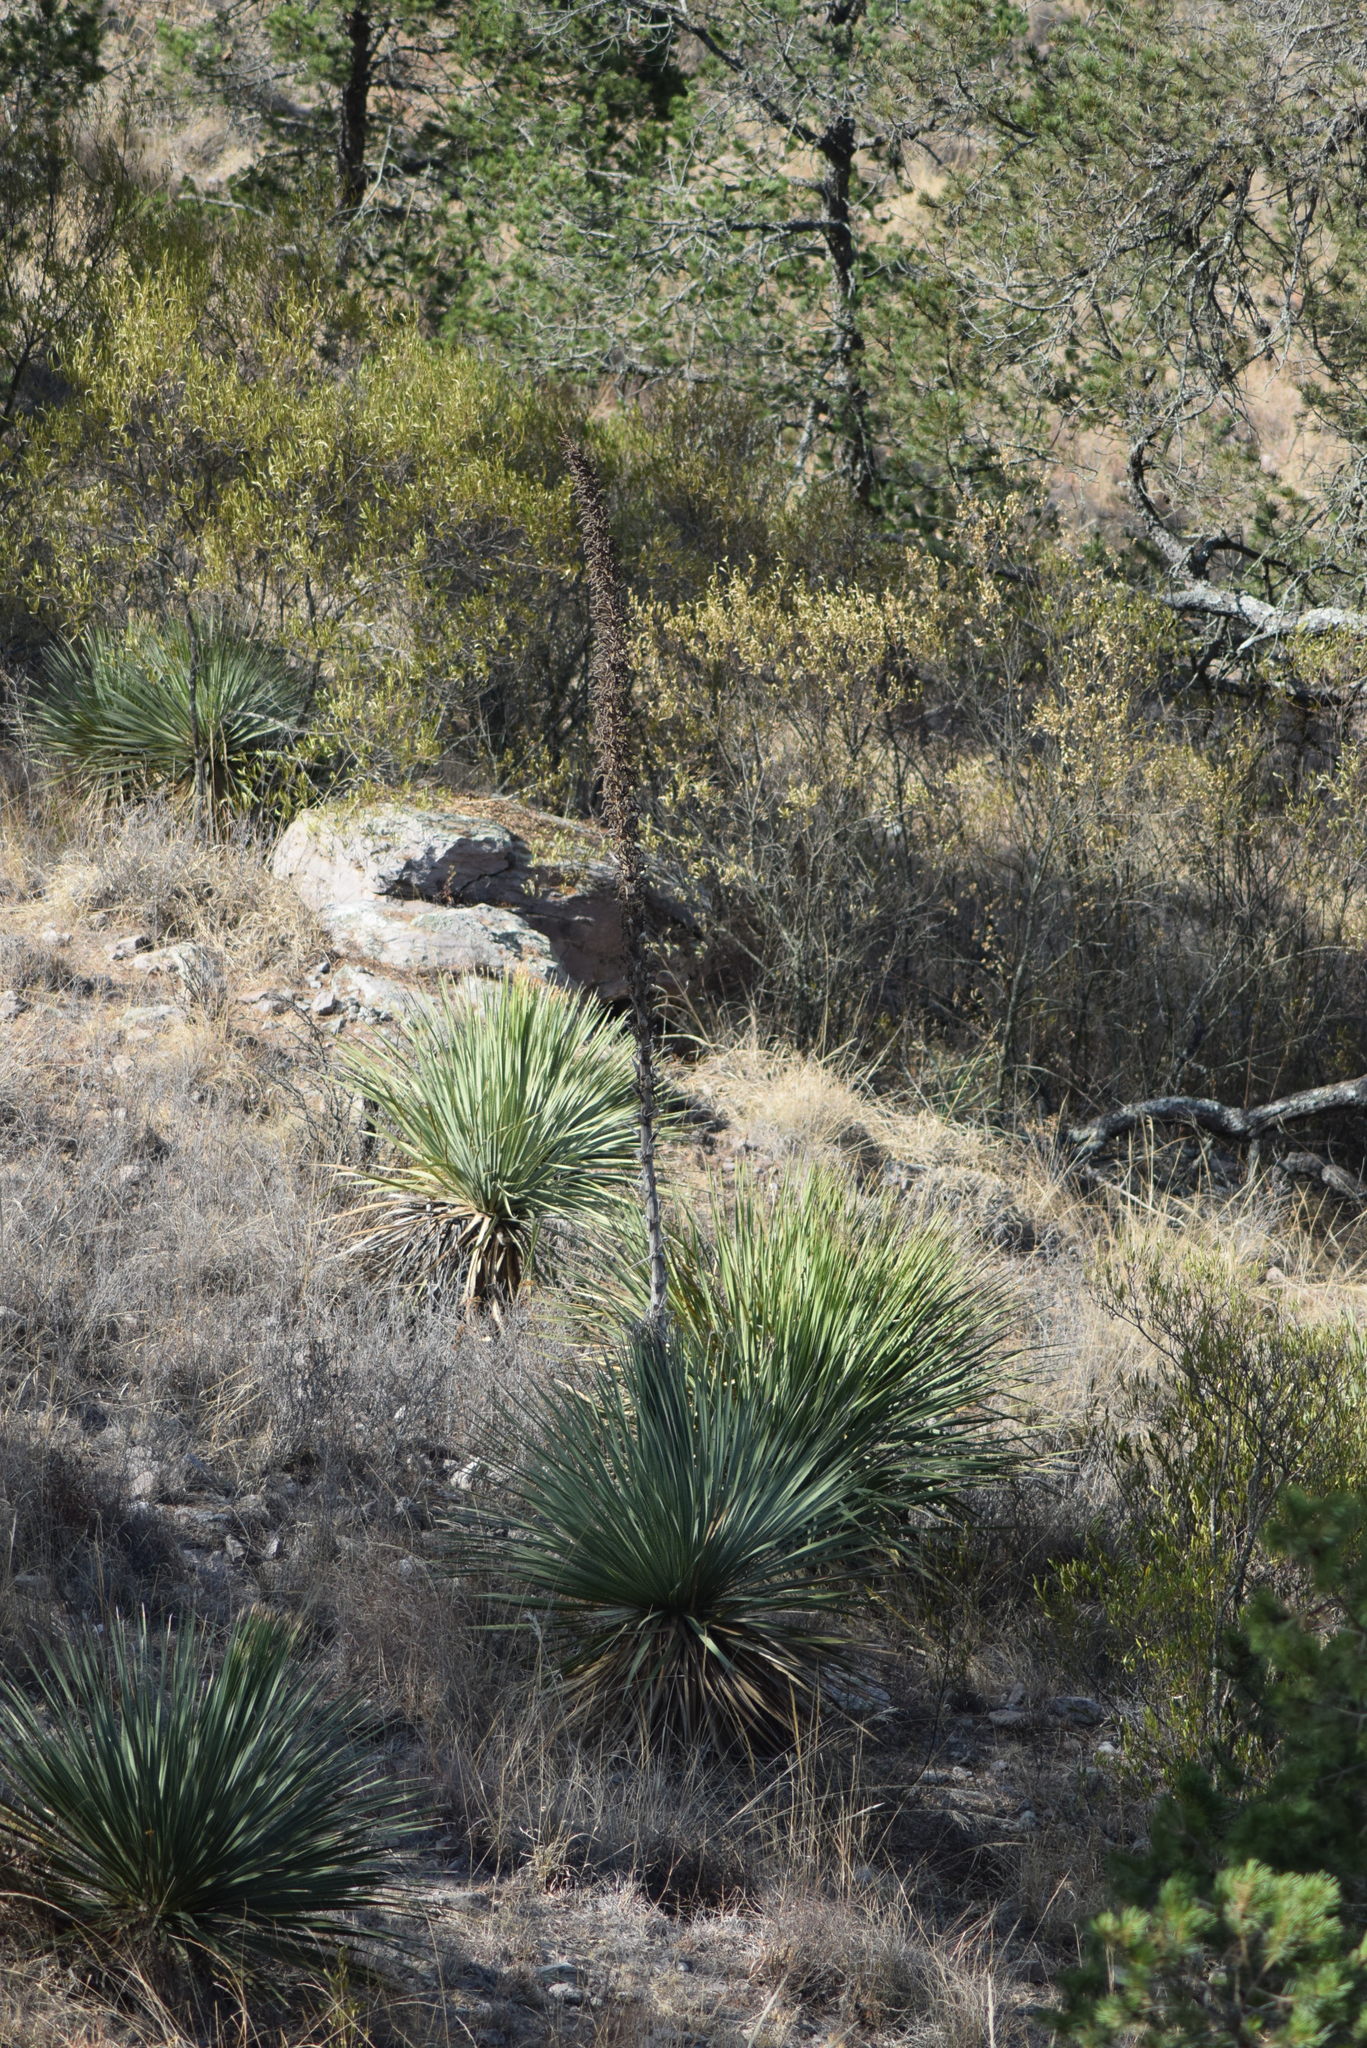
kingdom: Plantae
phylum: Tracheophyta
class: Liliopsida
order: Asparagales
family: Asparagaceae
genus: Dasylirion
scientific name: Dasylirion acrotrichum
